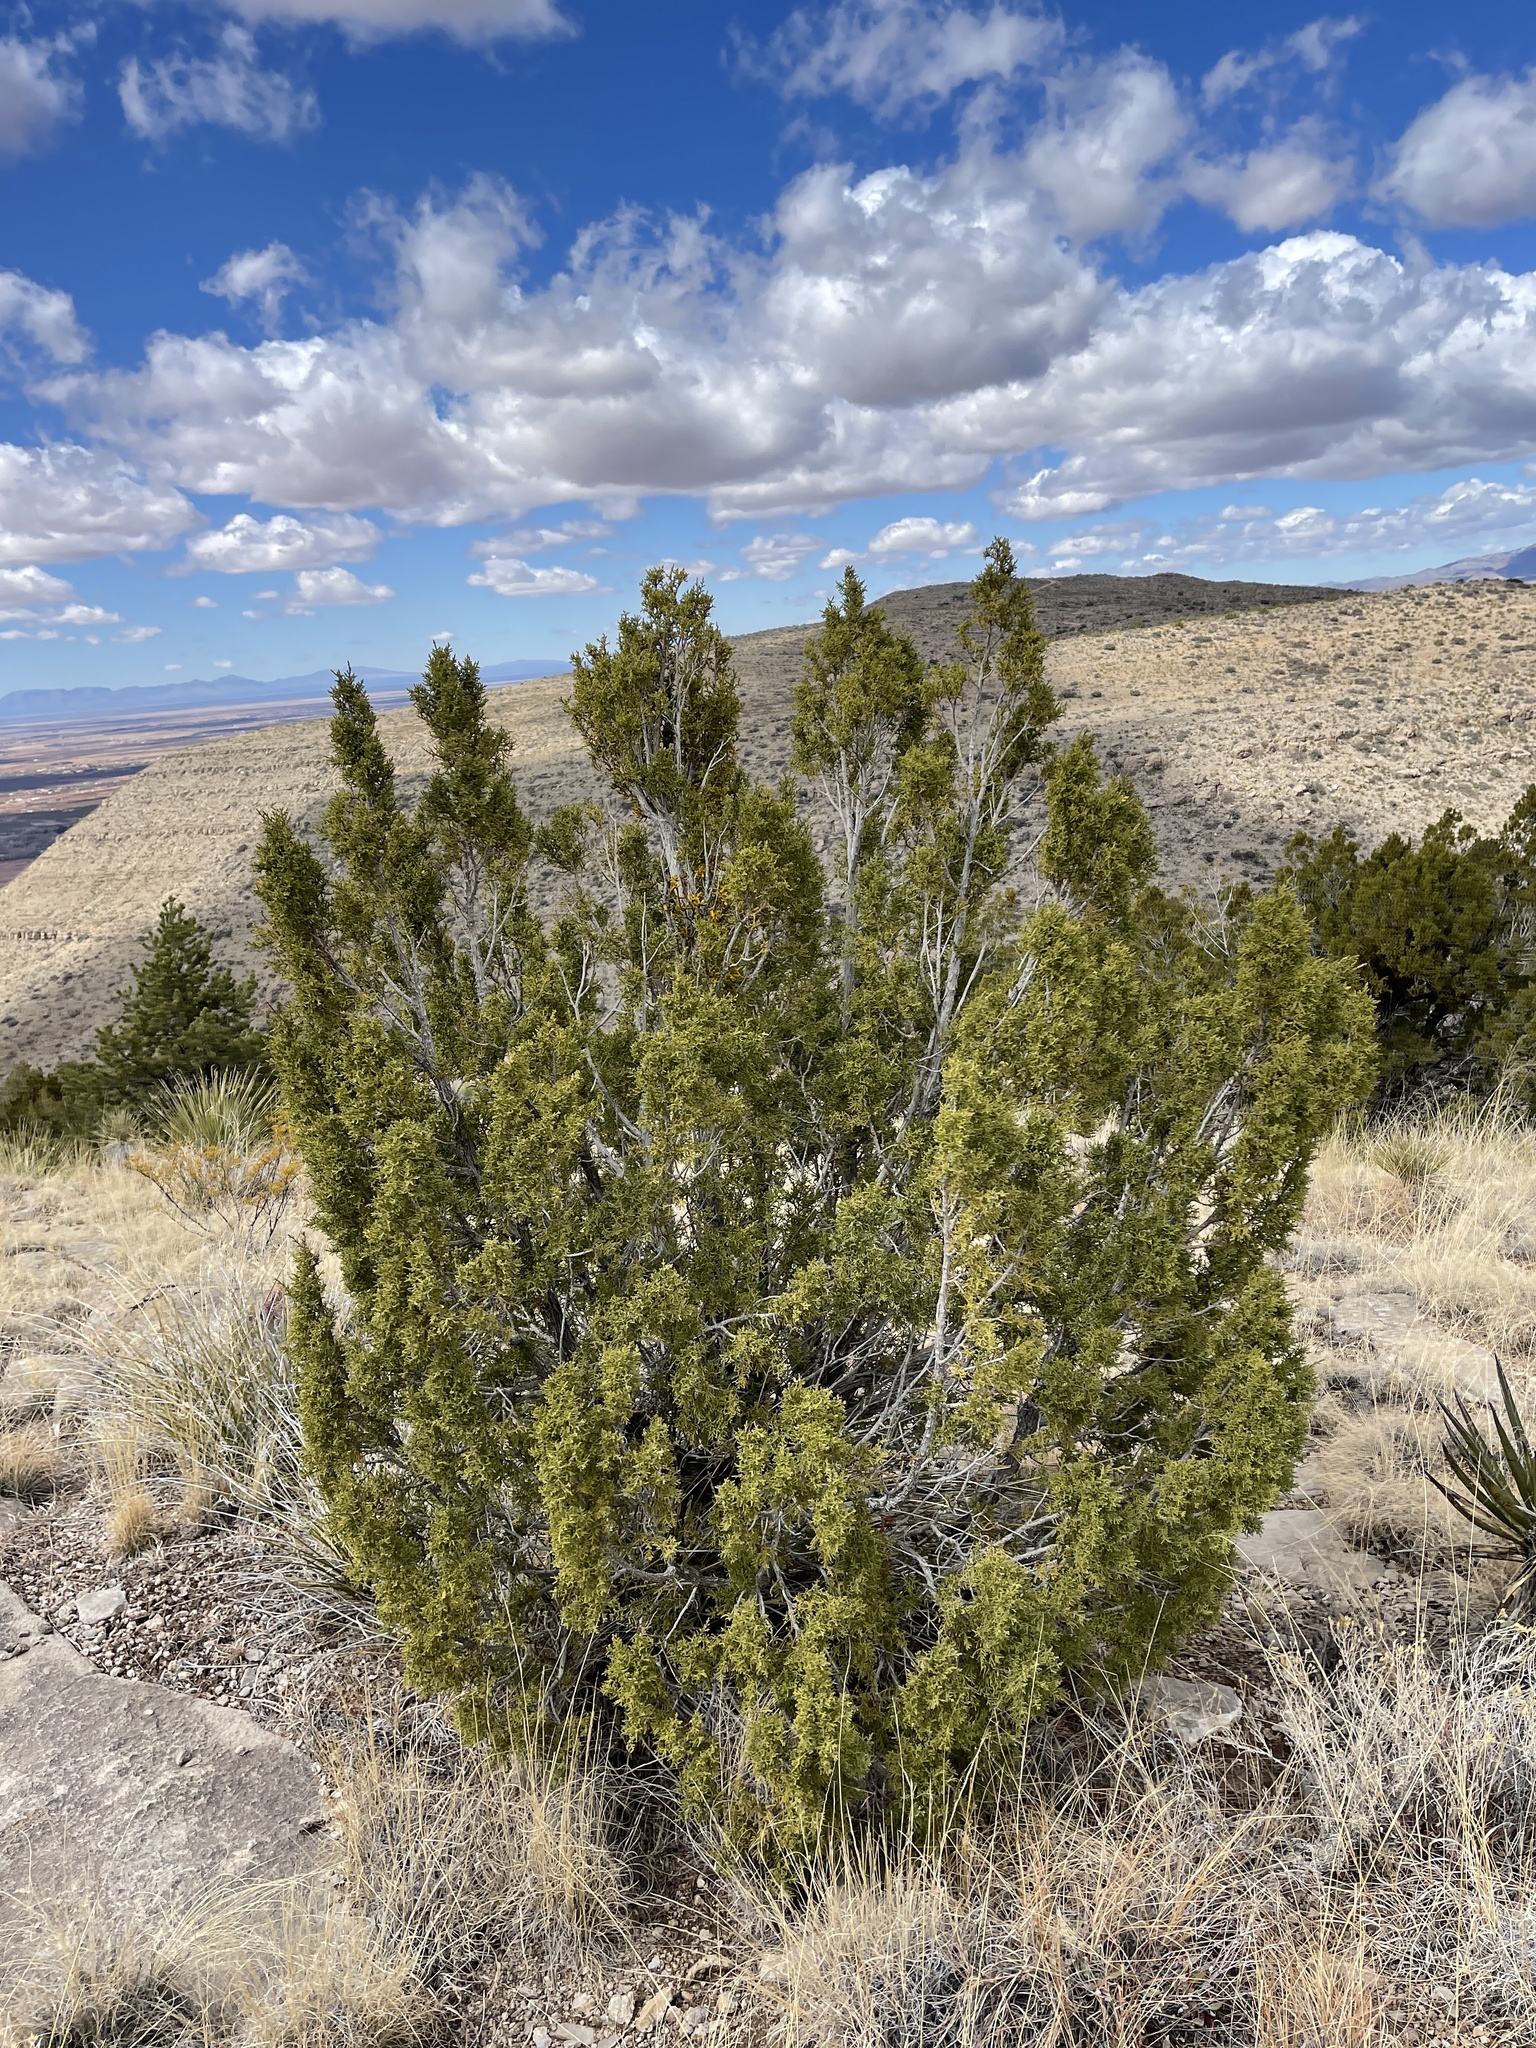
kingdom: Plantae
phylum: Tracheophyta
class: Pinopsida
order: Pinales
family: Cupressaceae
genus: Juniperus
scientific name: Juniperus monosperma
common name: One-seed juniper
